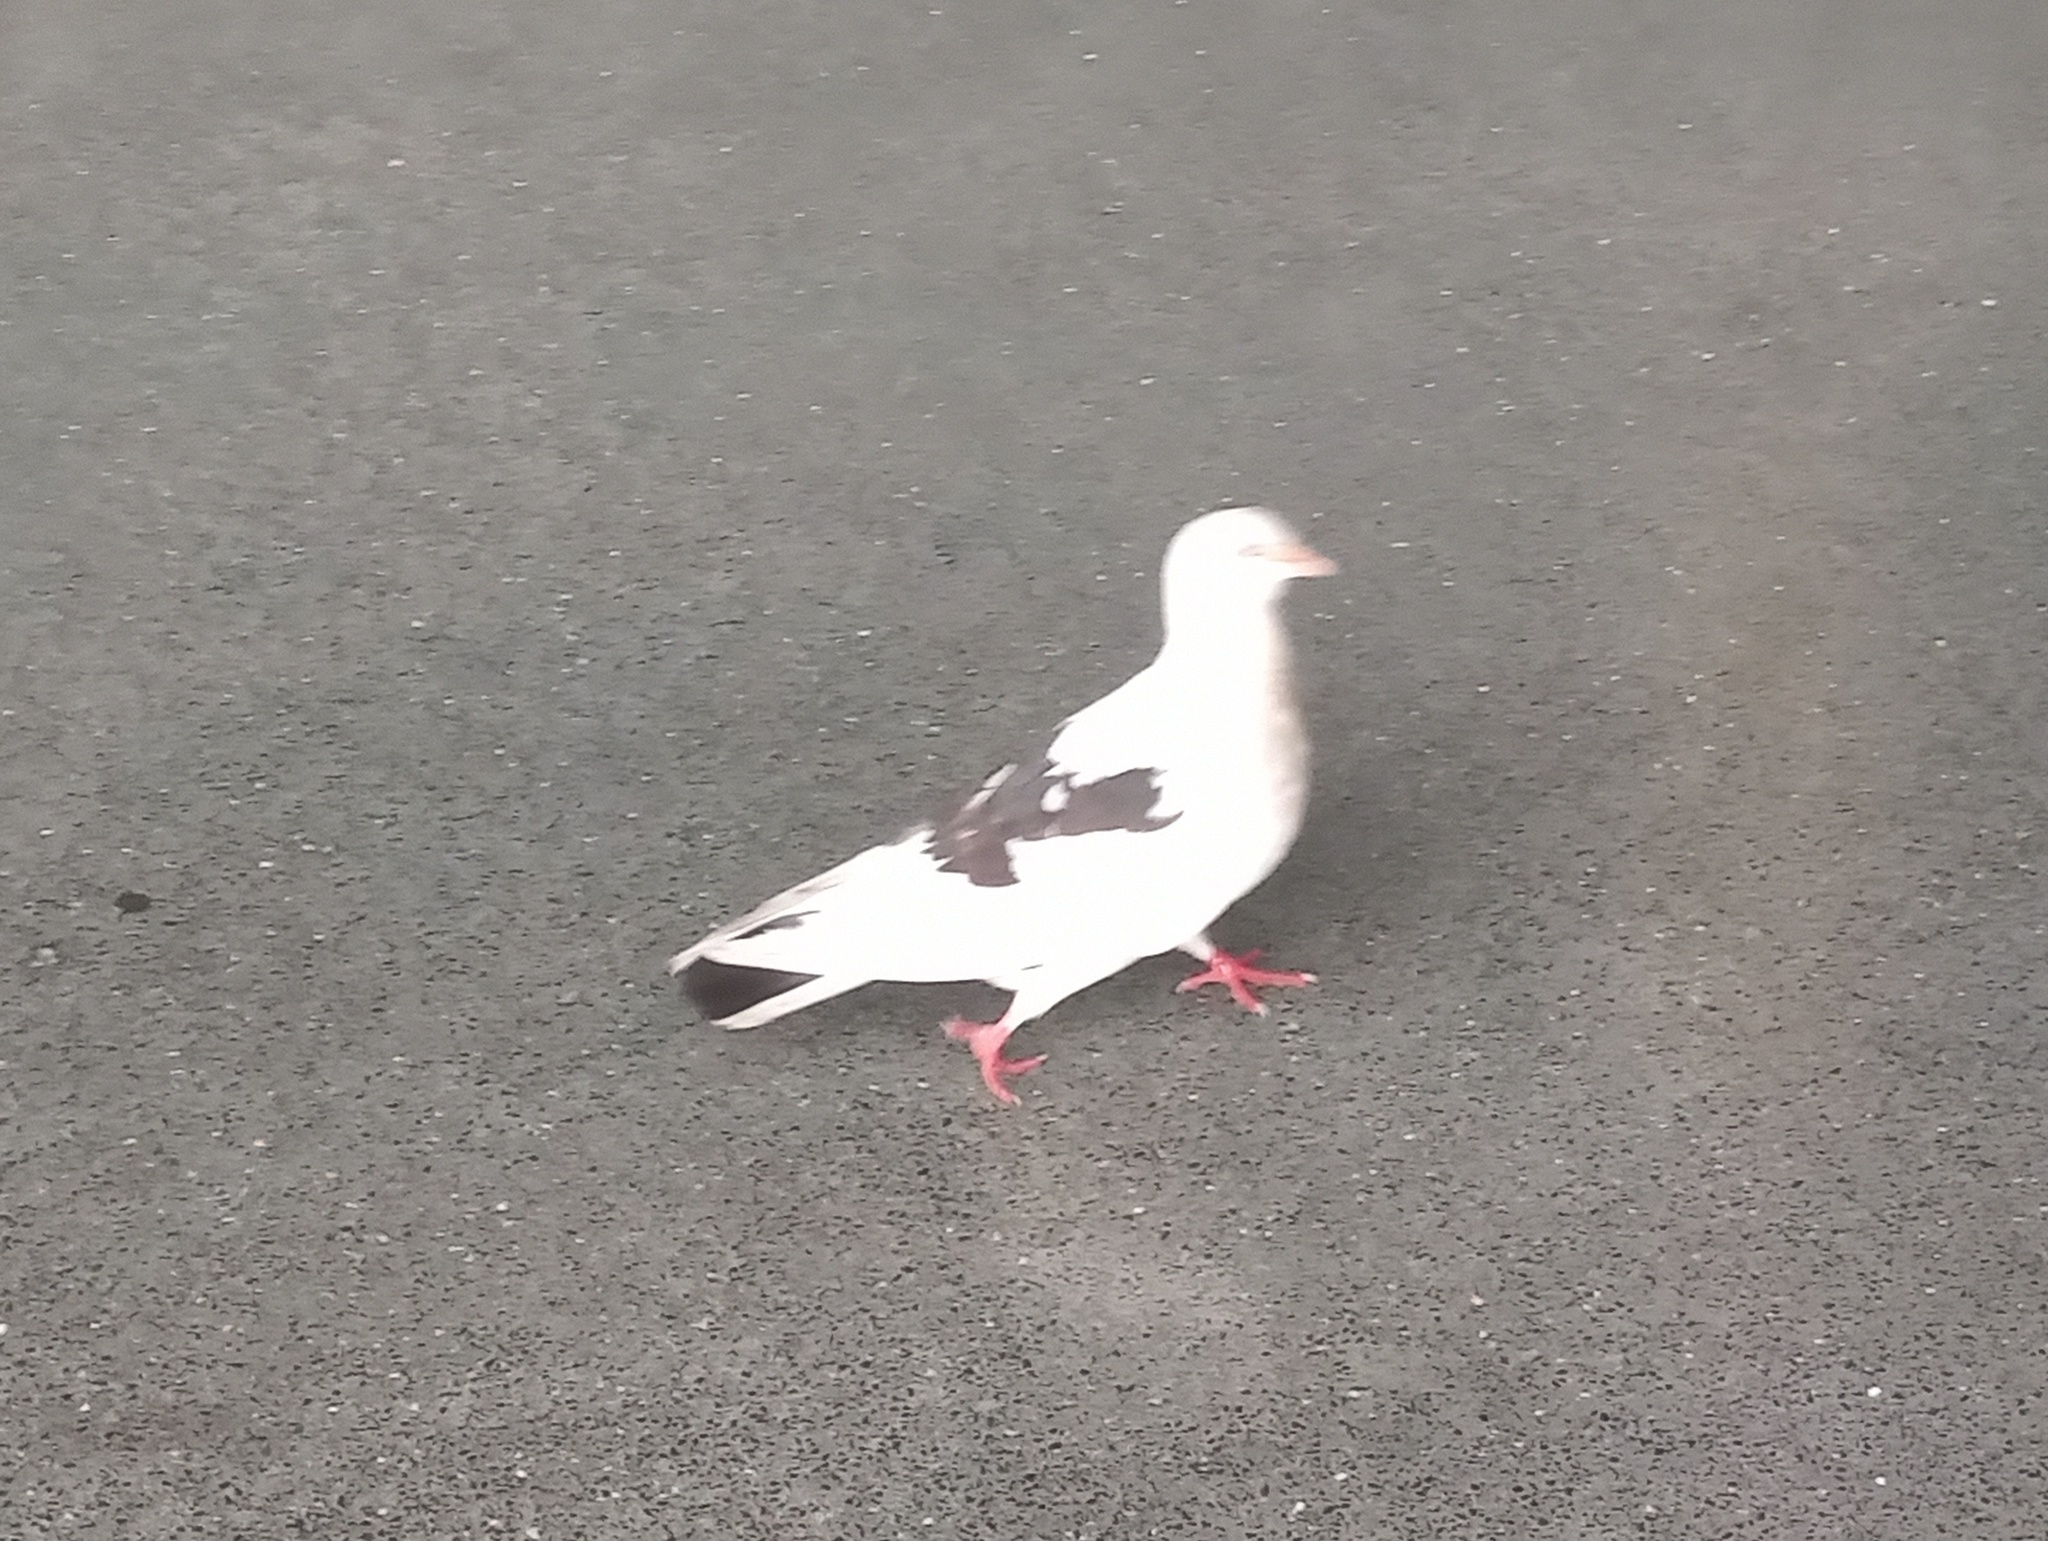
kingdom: Animalia
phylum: Chordata
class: Aves
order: Columbiformes
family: Columbidae
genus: Columba
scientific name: Columba livia
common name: Rock pigeon
